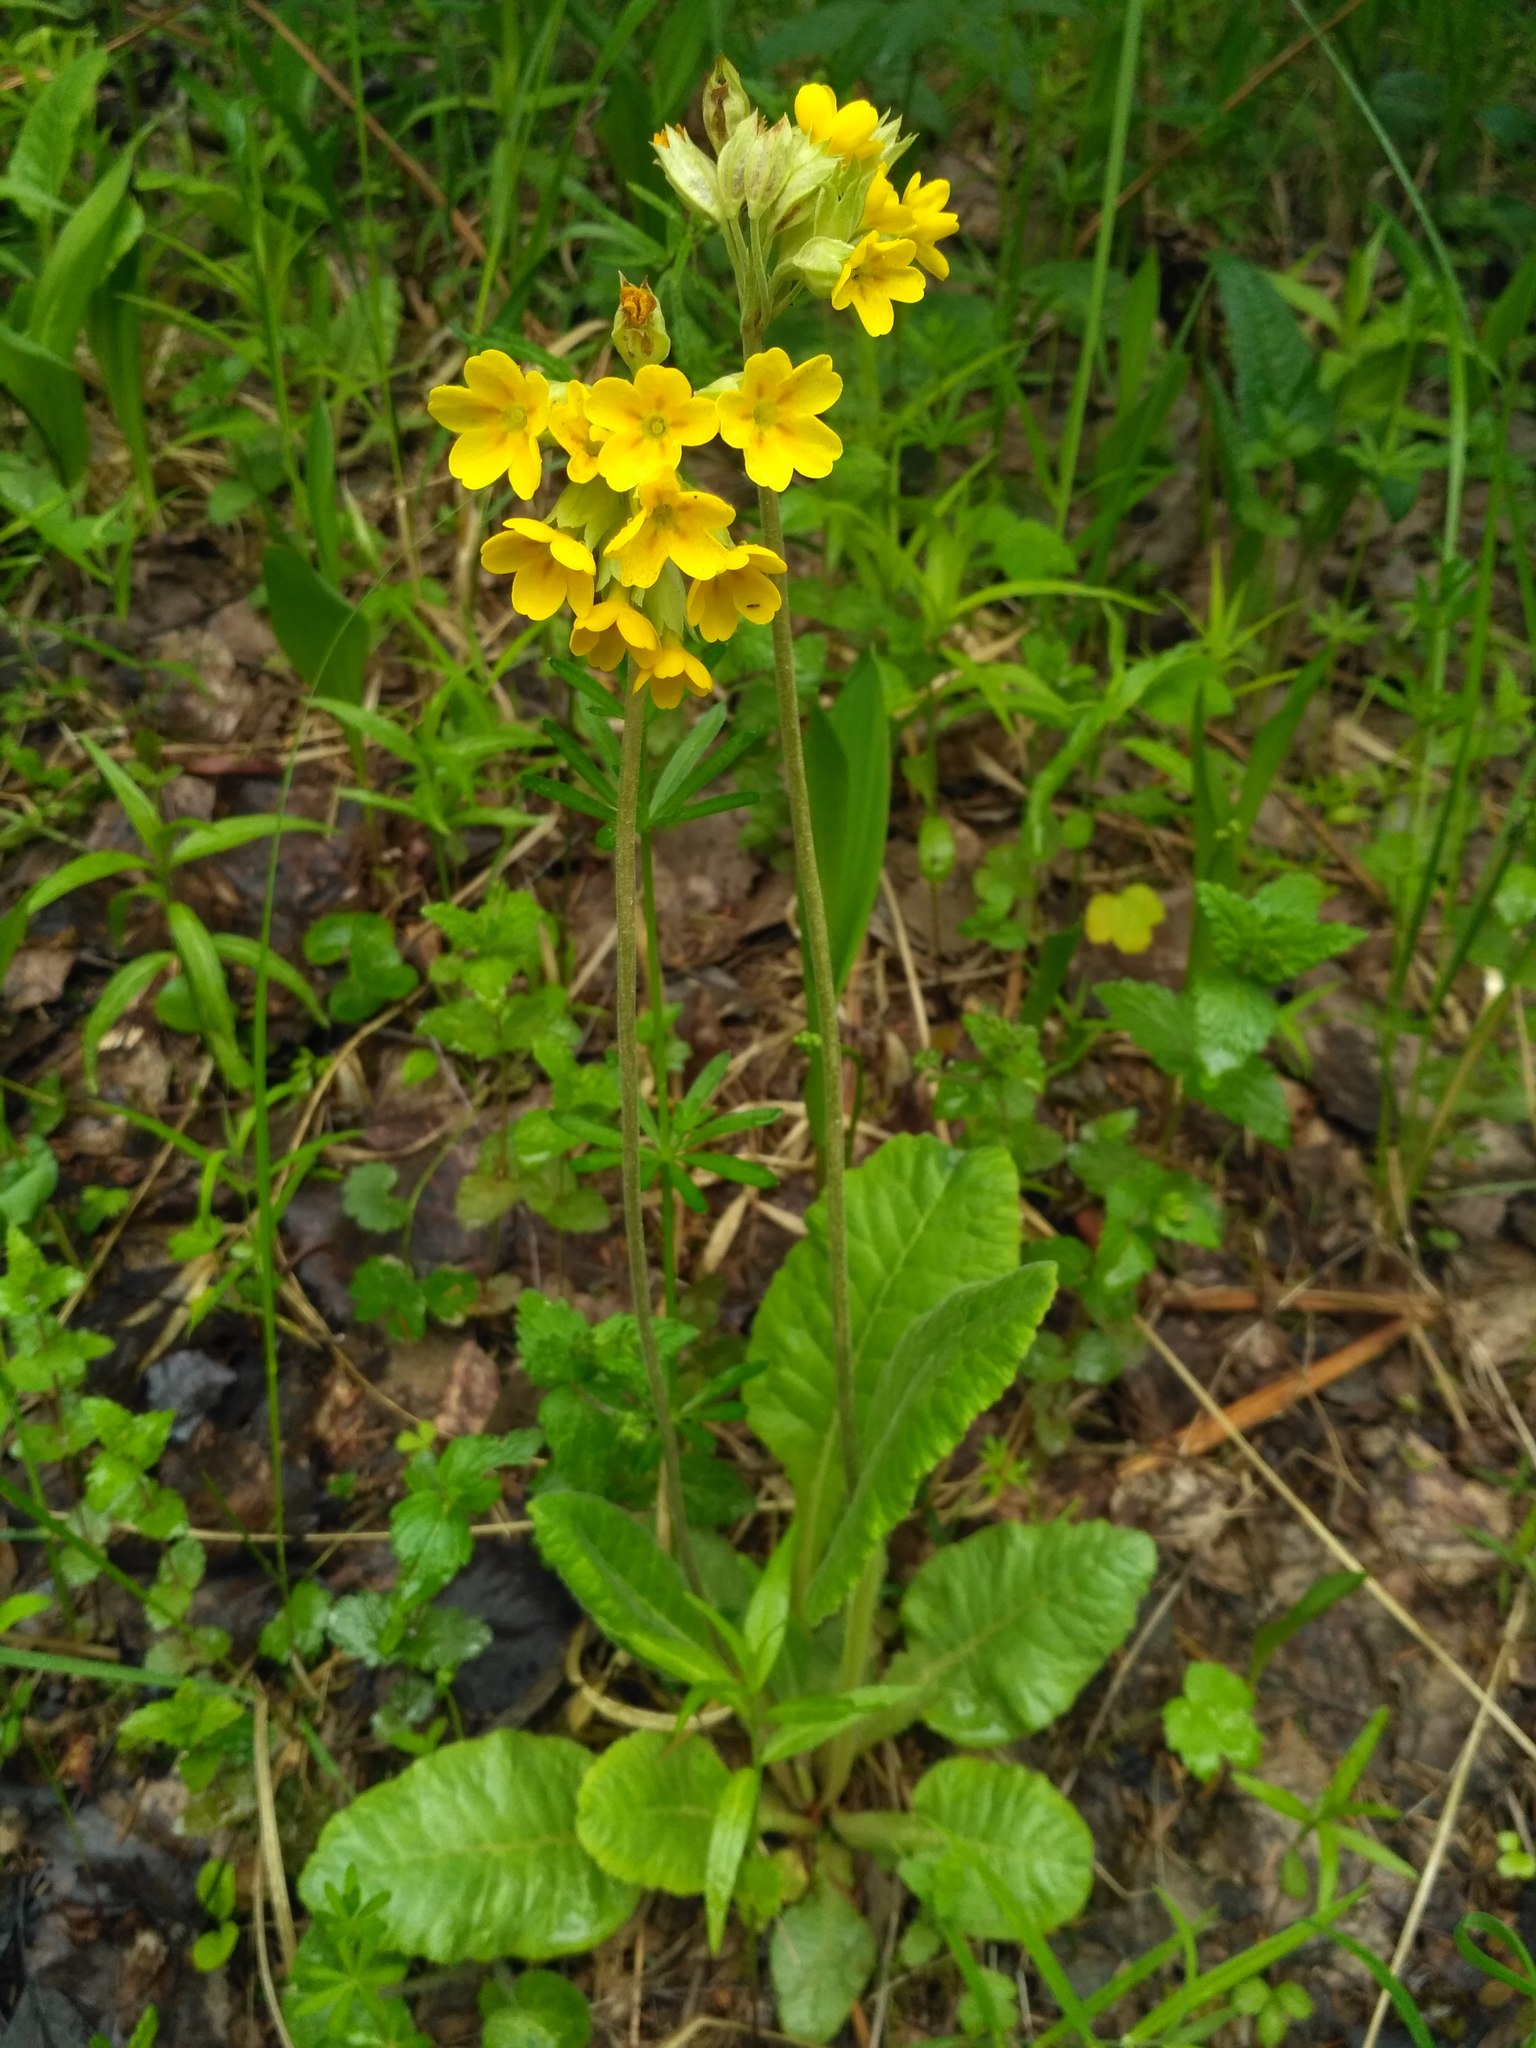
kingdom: Plantae
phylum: Tracheophyta
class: Magnoliopsida
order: Ericales
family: Primulaceae
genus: Primula
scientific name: Primula veris
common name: Cowslip
